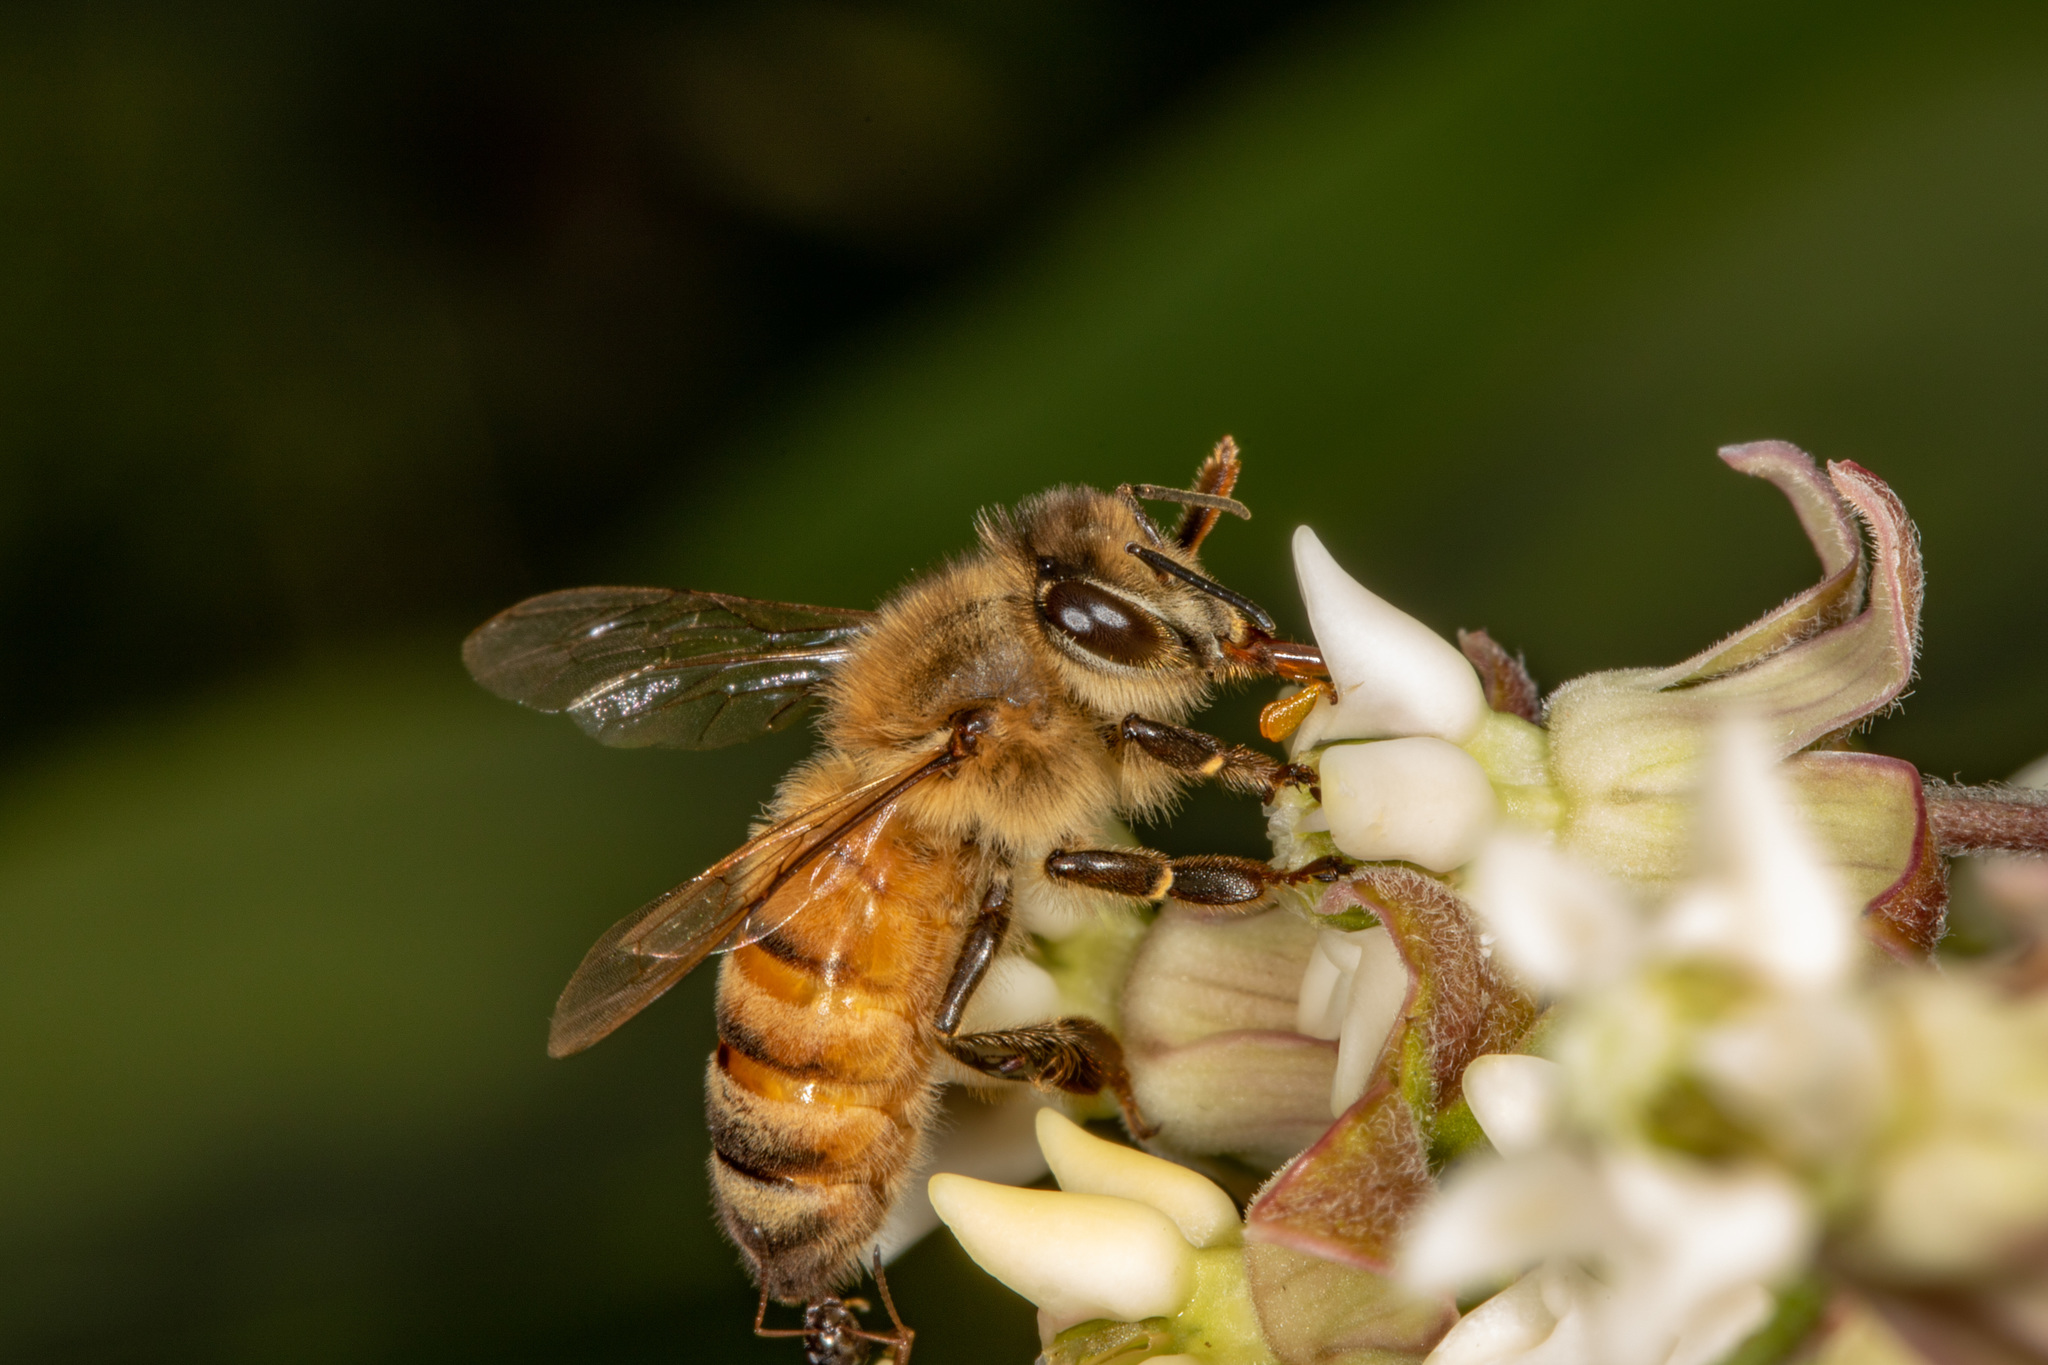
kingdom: Animalia
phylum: Arthropoda
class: Insecta
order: Hymenoptera
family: Apidae
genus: Apis
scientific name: Apis mellifera
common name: Honey bee
